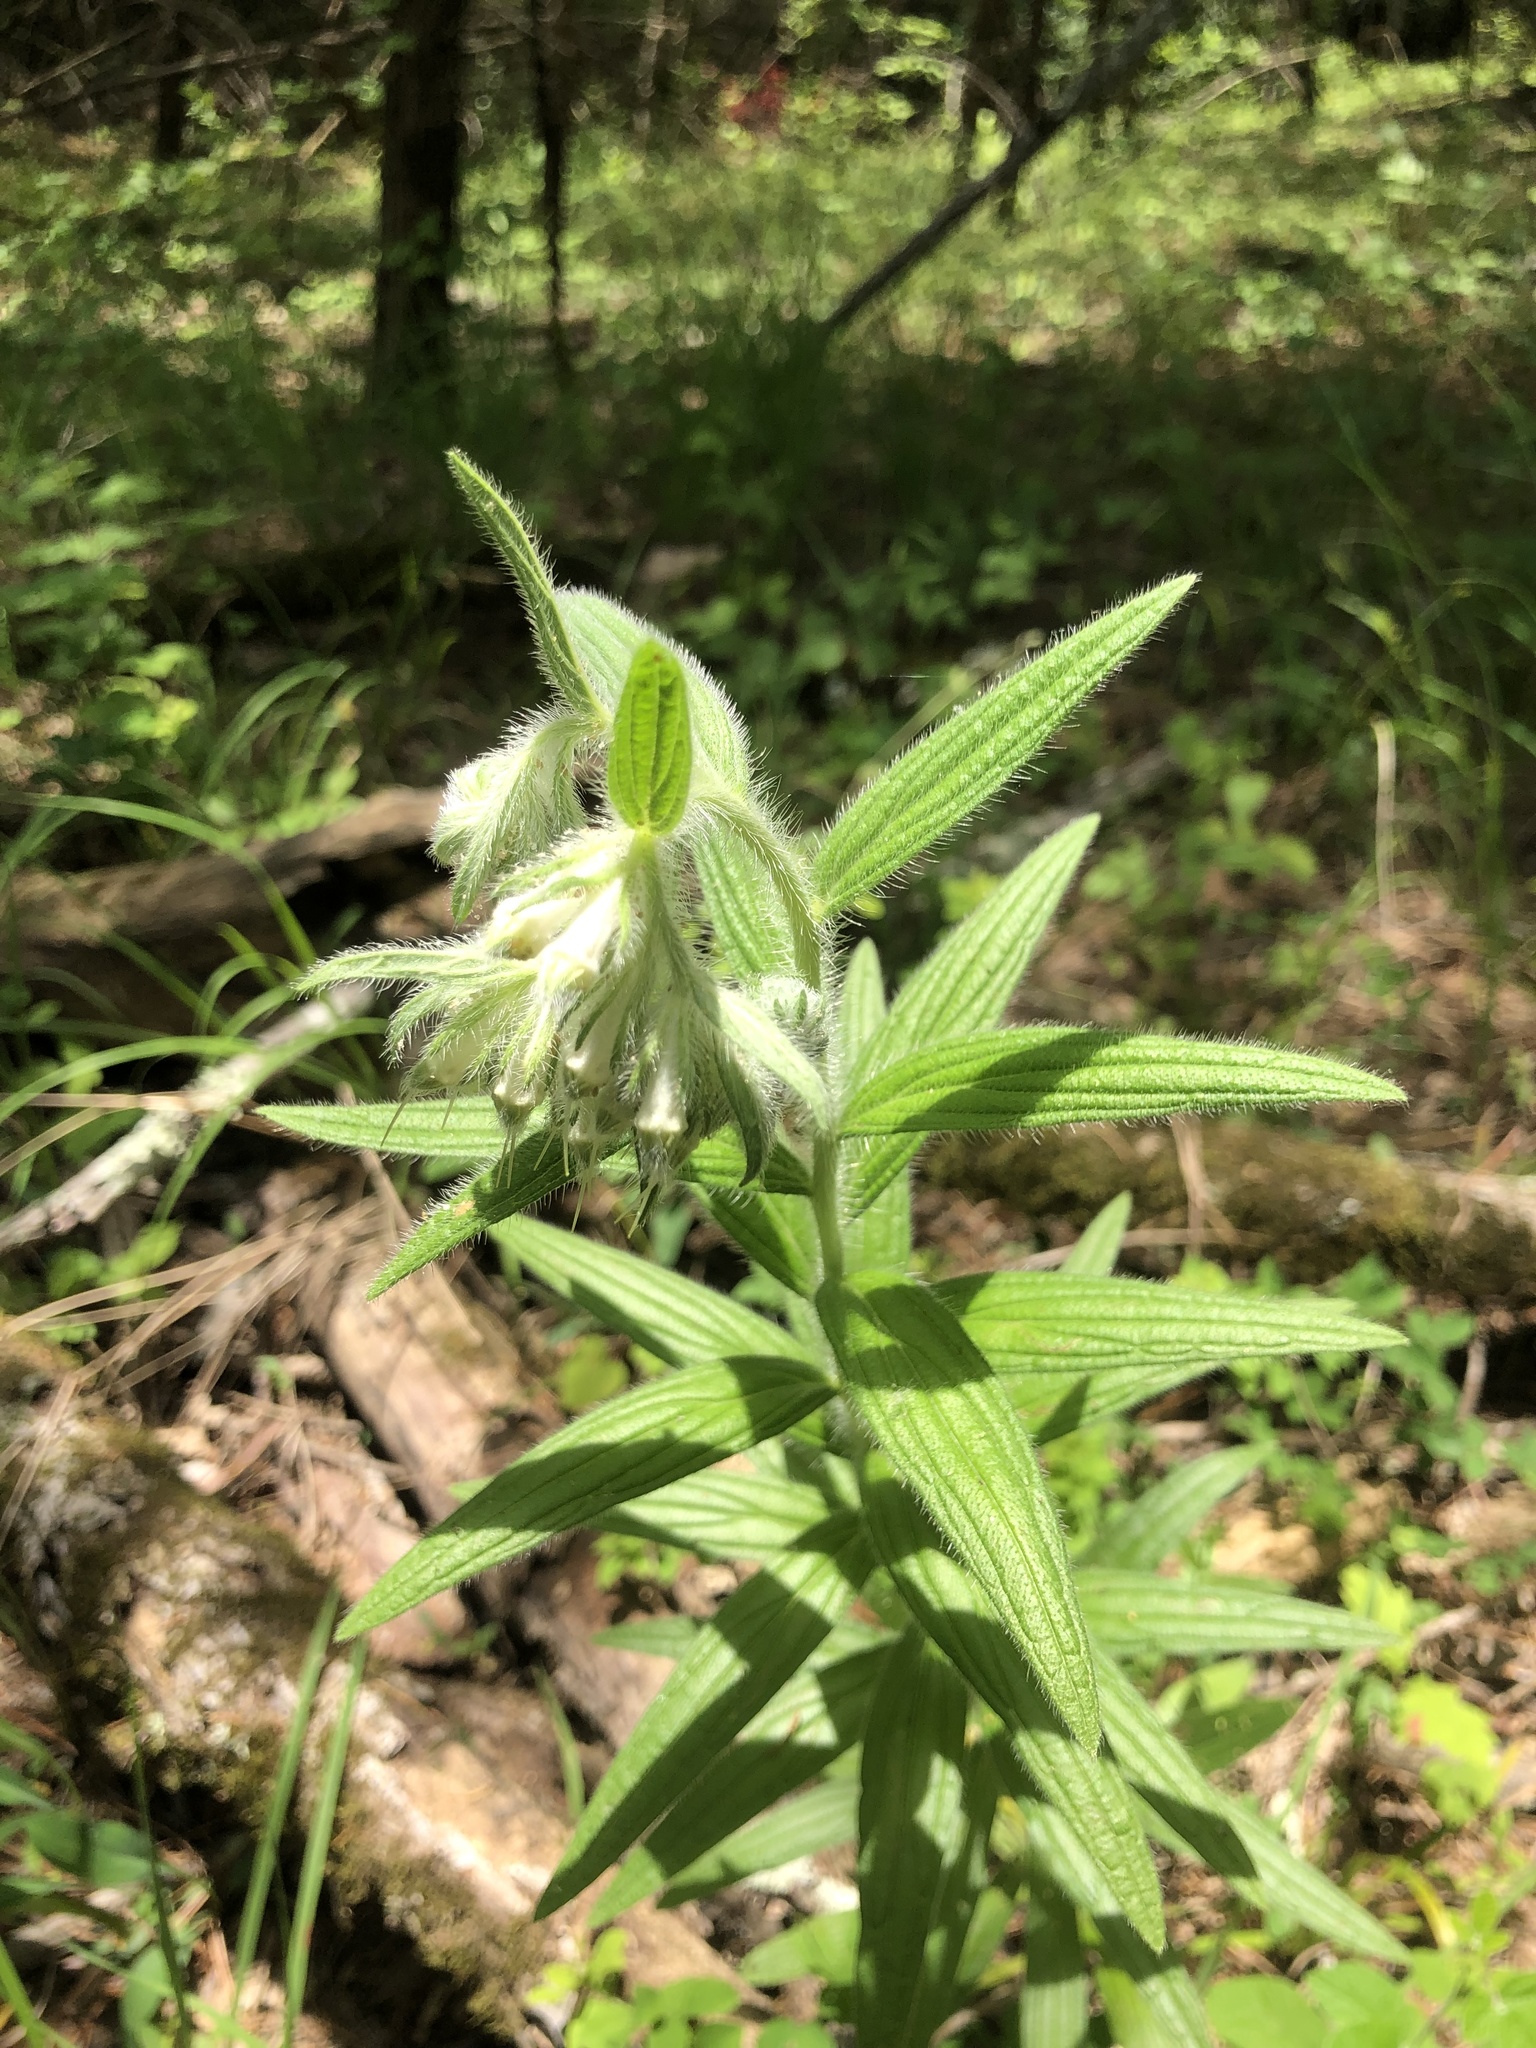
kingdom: Plantae
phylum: Tracheophyta
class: Magnoliopsida
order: Boraginales
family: Boraginaceae
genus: Lithospermum
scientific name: Lithospermum caroliniense
